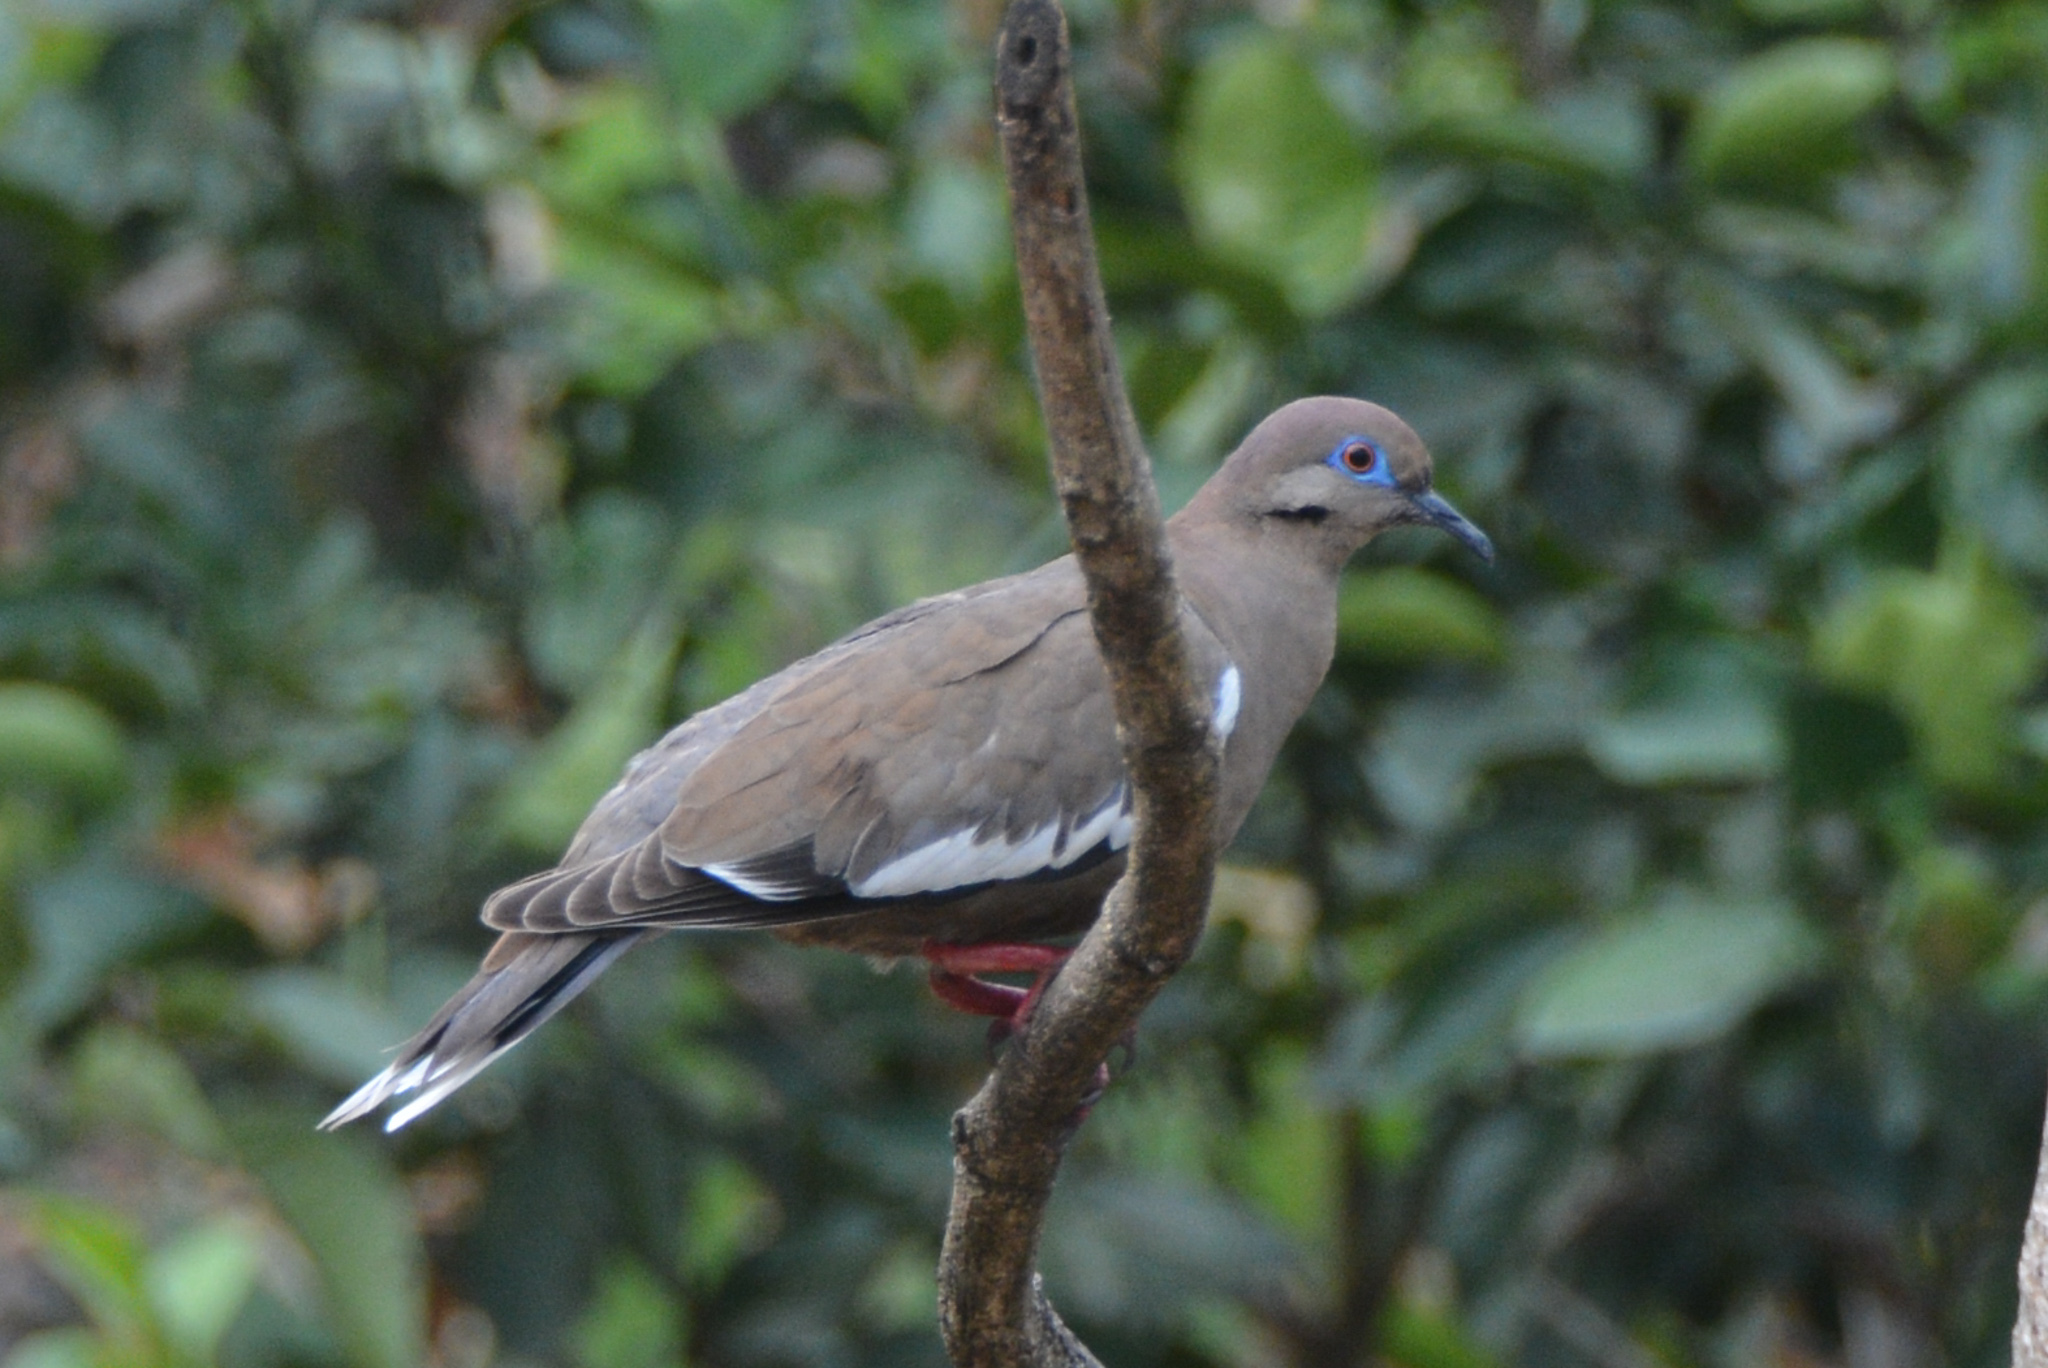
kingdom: Animalia
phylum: Chordata
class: Aves
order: Columbiformes
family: Columbidae
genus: Zenaida
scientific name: Zenaida asiatica
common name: White-winged dove
